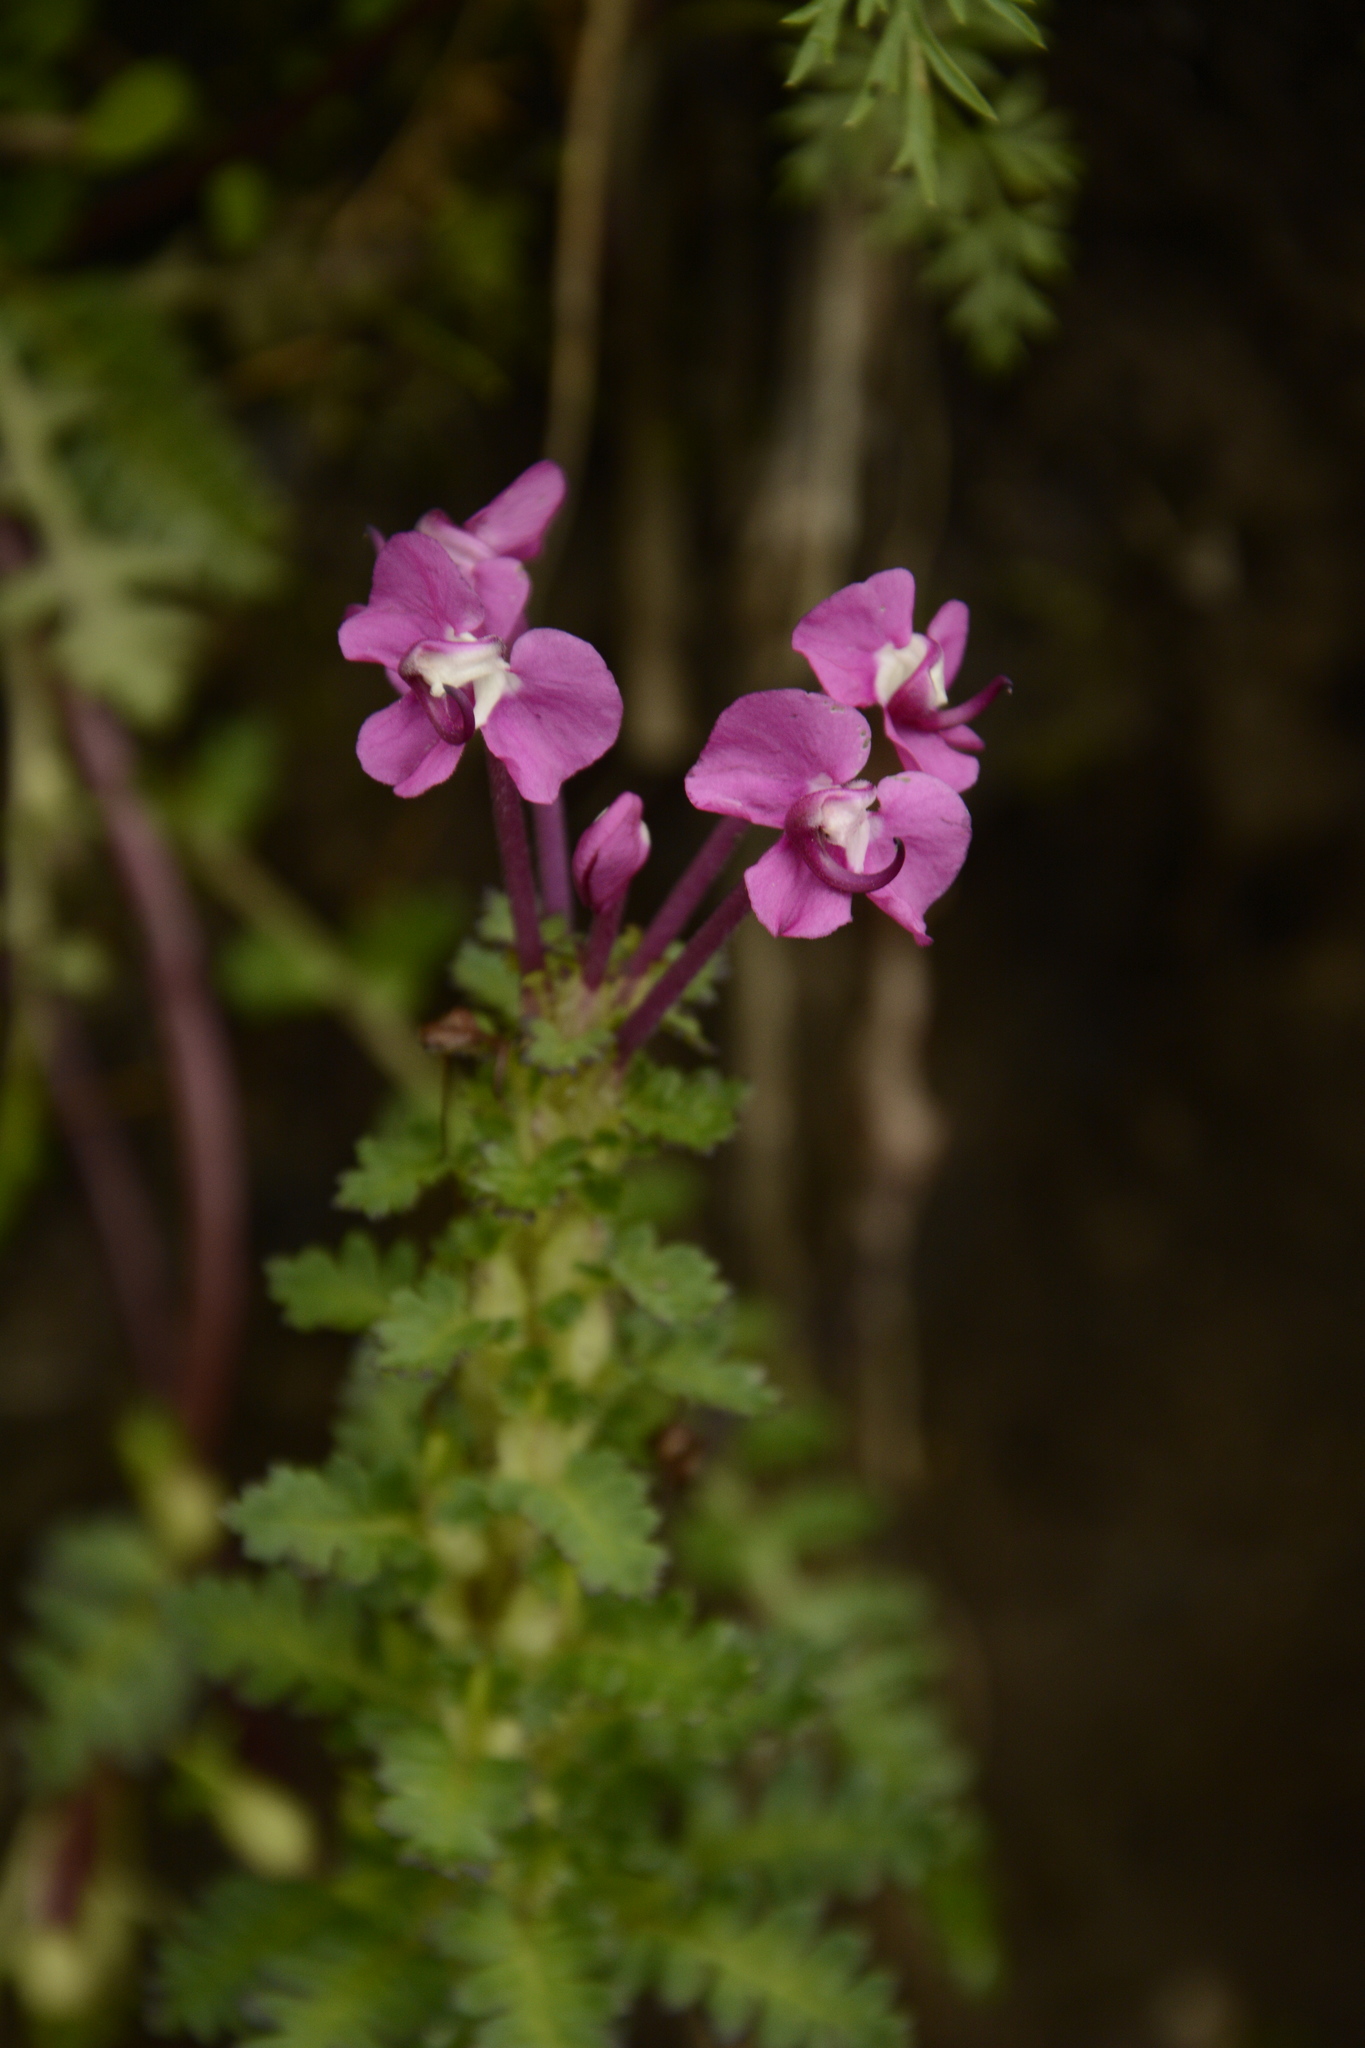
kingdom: Plantae
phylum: Tracheophyta
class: Magnoliopsida
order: Lamiales
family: Orobanchaceae
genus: Pedicularis
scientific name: Pedicularis punctata
